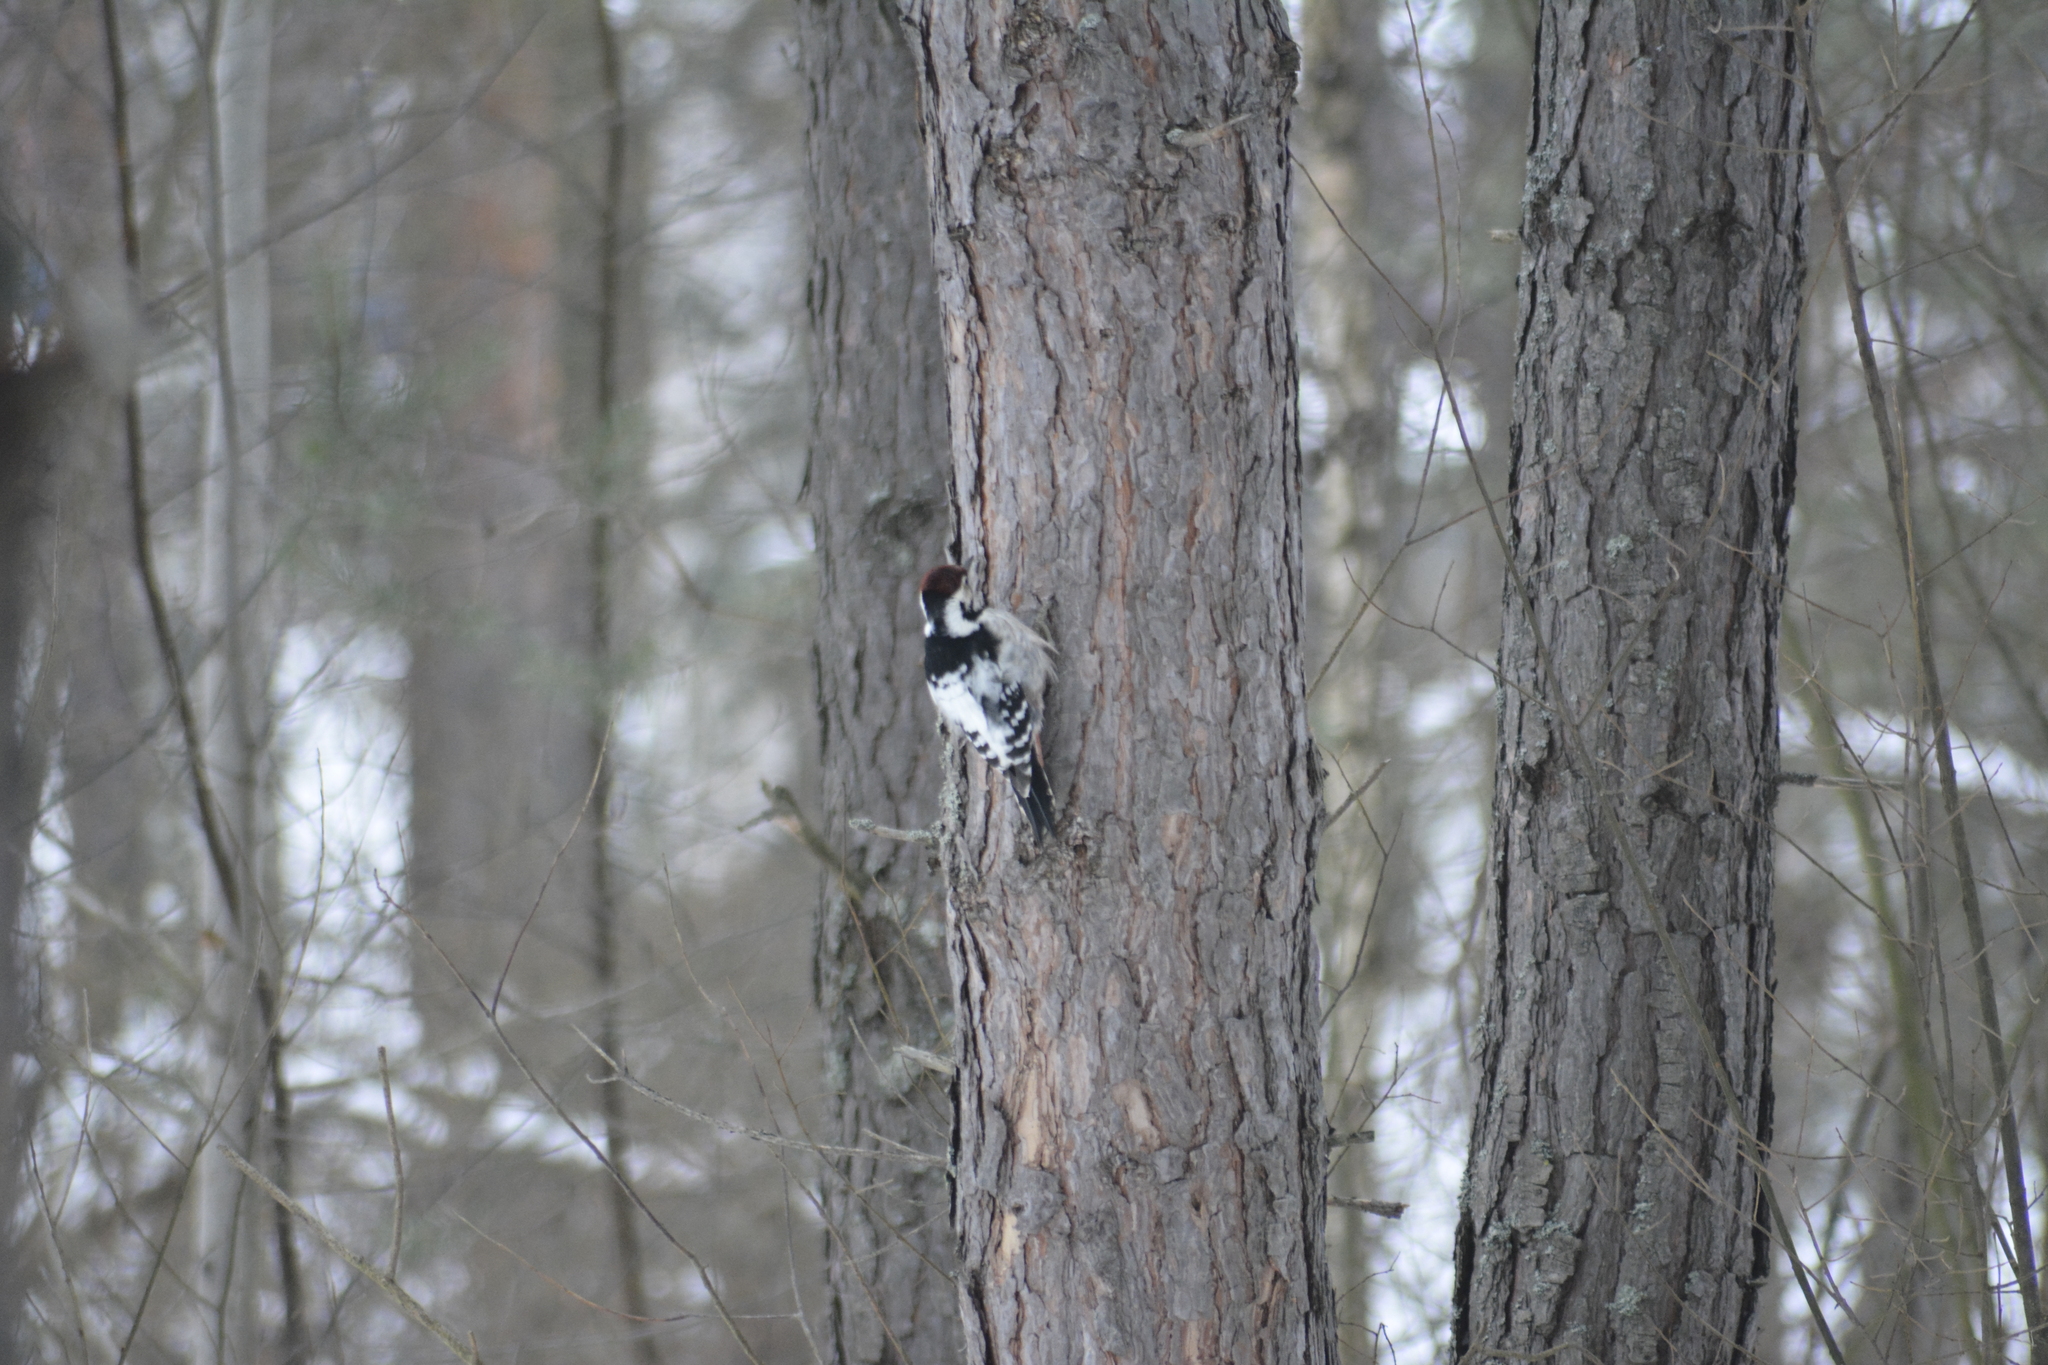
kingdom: Animalia
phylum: Chordata
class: Aves
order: Piciformes
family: Picidae
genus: Dendrocopos
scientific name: Dendrocopos leucotos
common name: White-backed woodpecker
